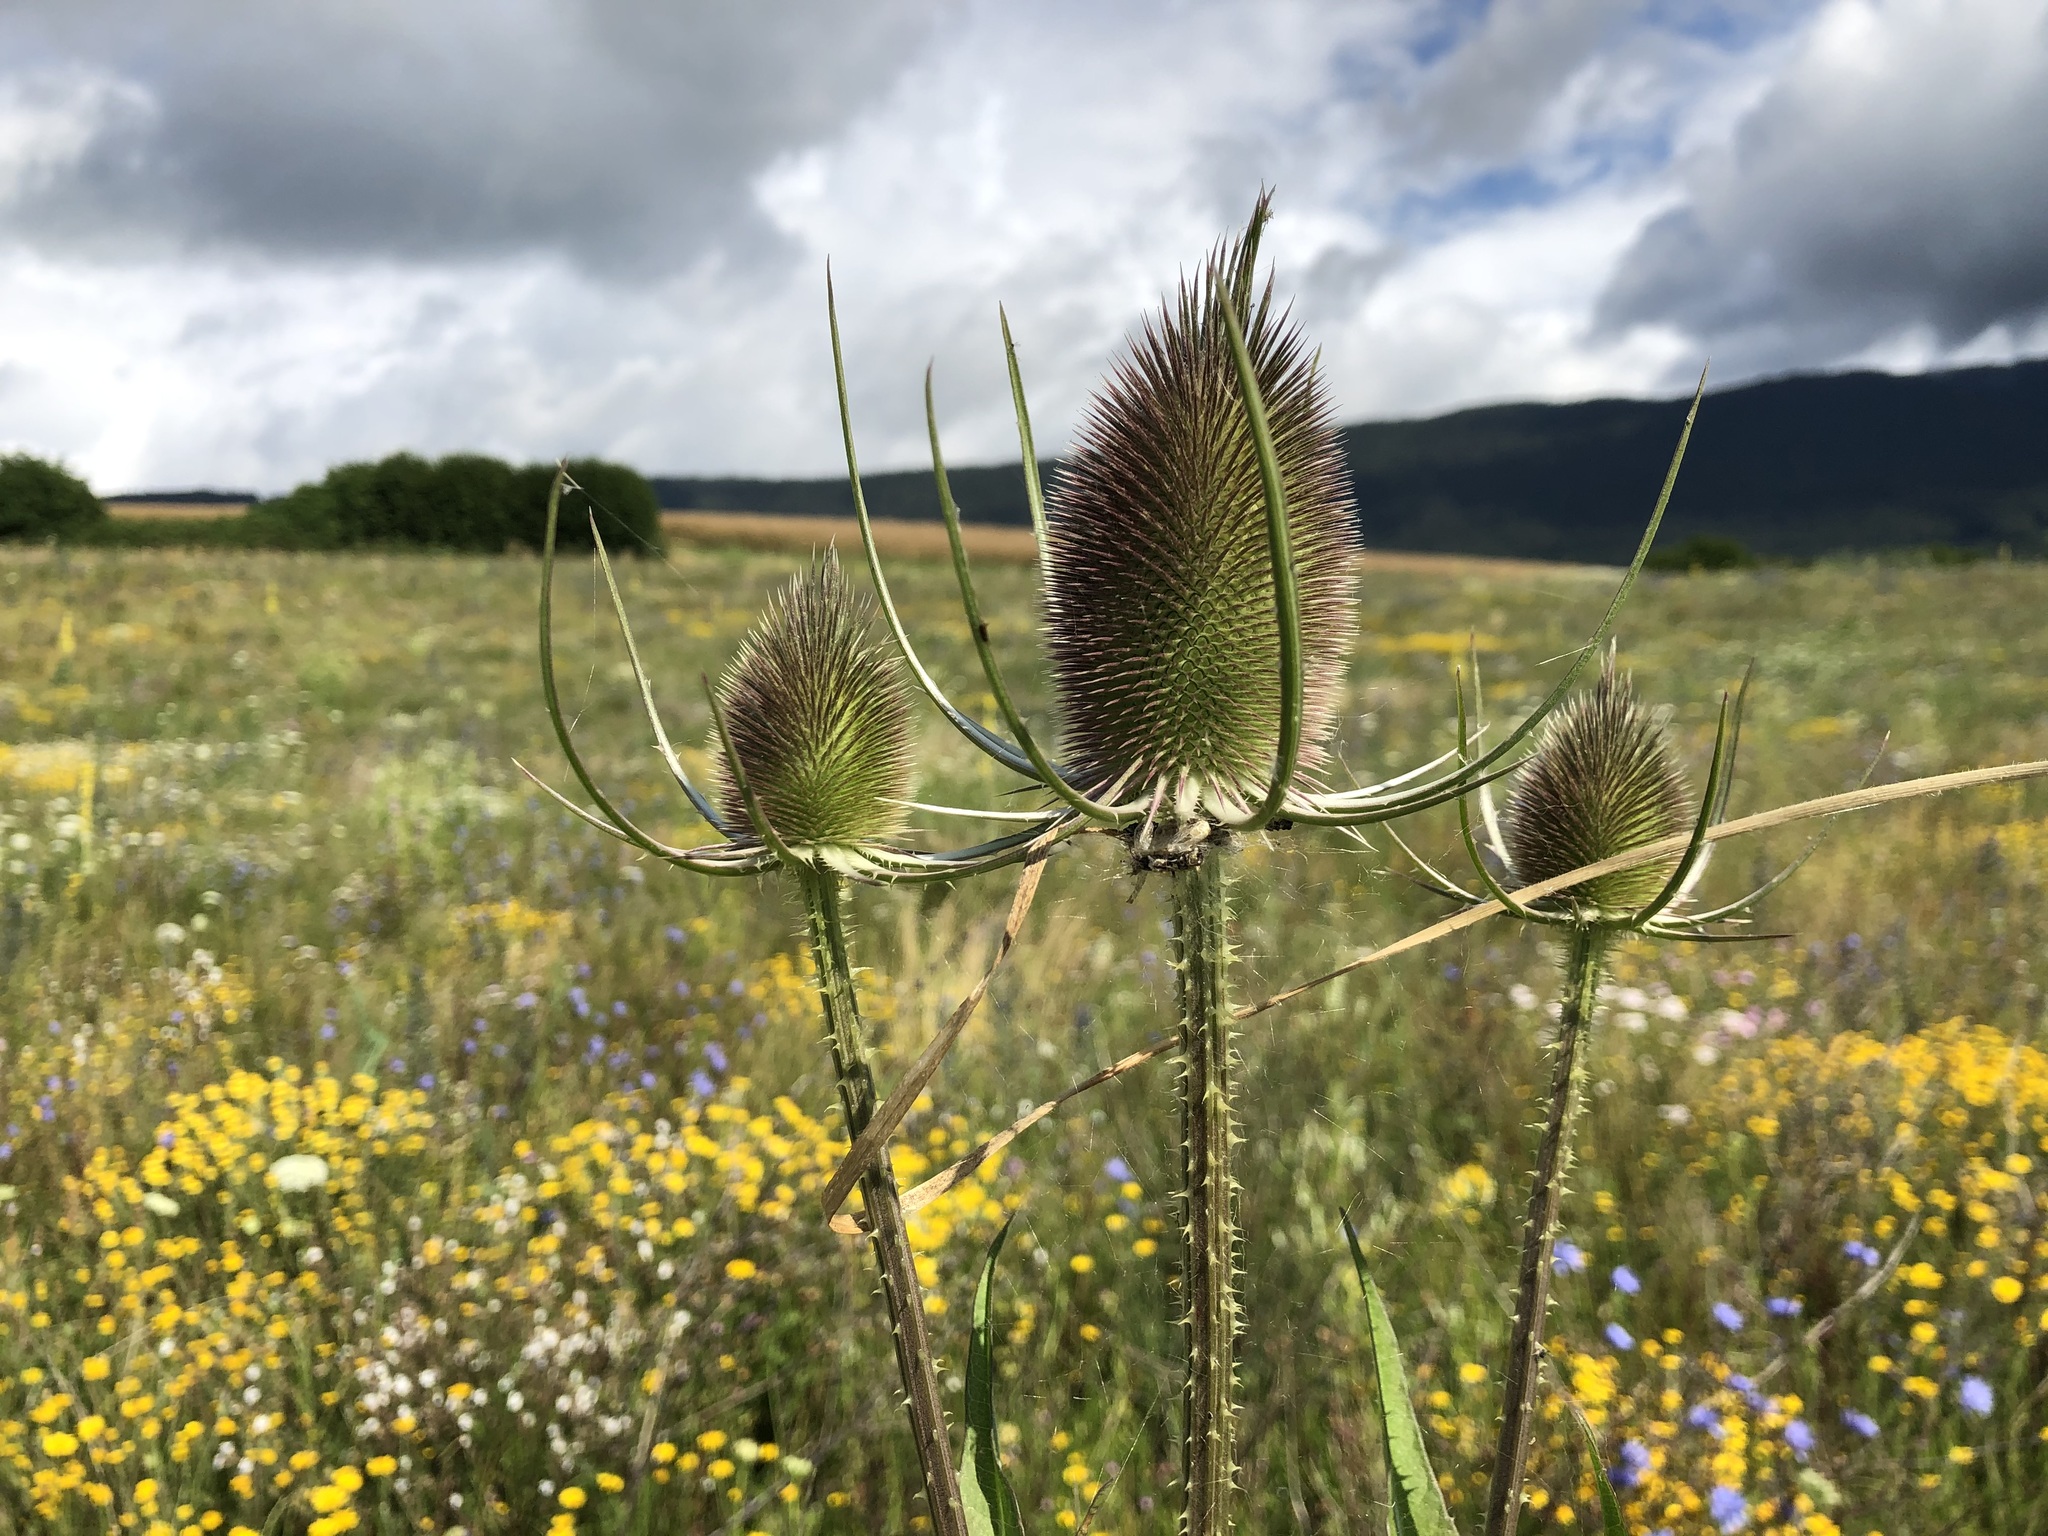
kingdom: Plantae
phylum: Tracheophyta
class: Magnoliopsida
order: Dipsacales
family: Caprifoliaceae
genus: Dipsacus
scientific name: Dipsacus fullonum
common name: Teasel
